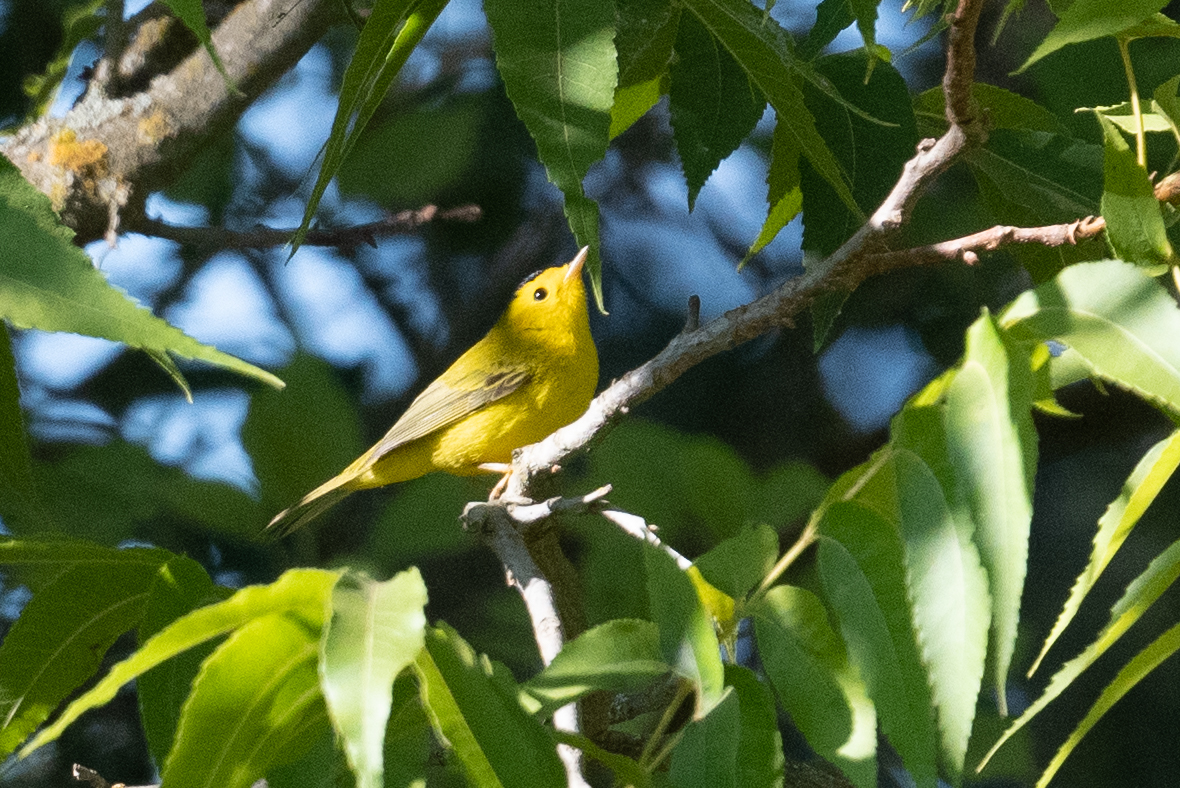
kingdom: Animalia
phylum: Chordata
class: Aves
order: Passeriformes
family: Parulidae
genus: Cardellina
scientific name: Cardellina pusilla
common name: Wilson's warbler
